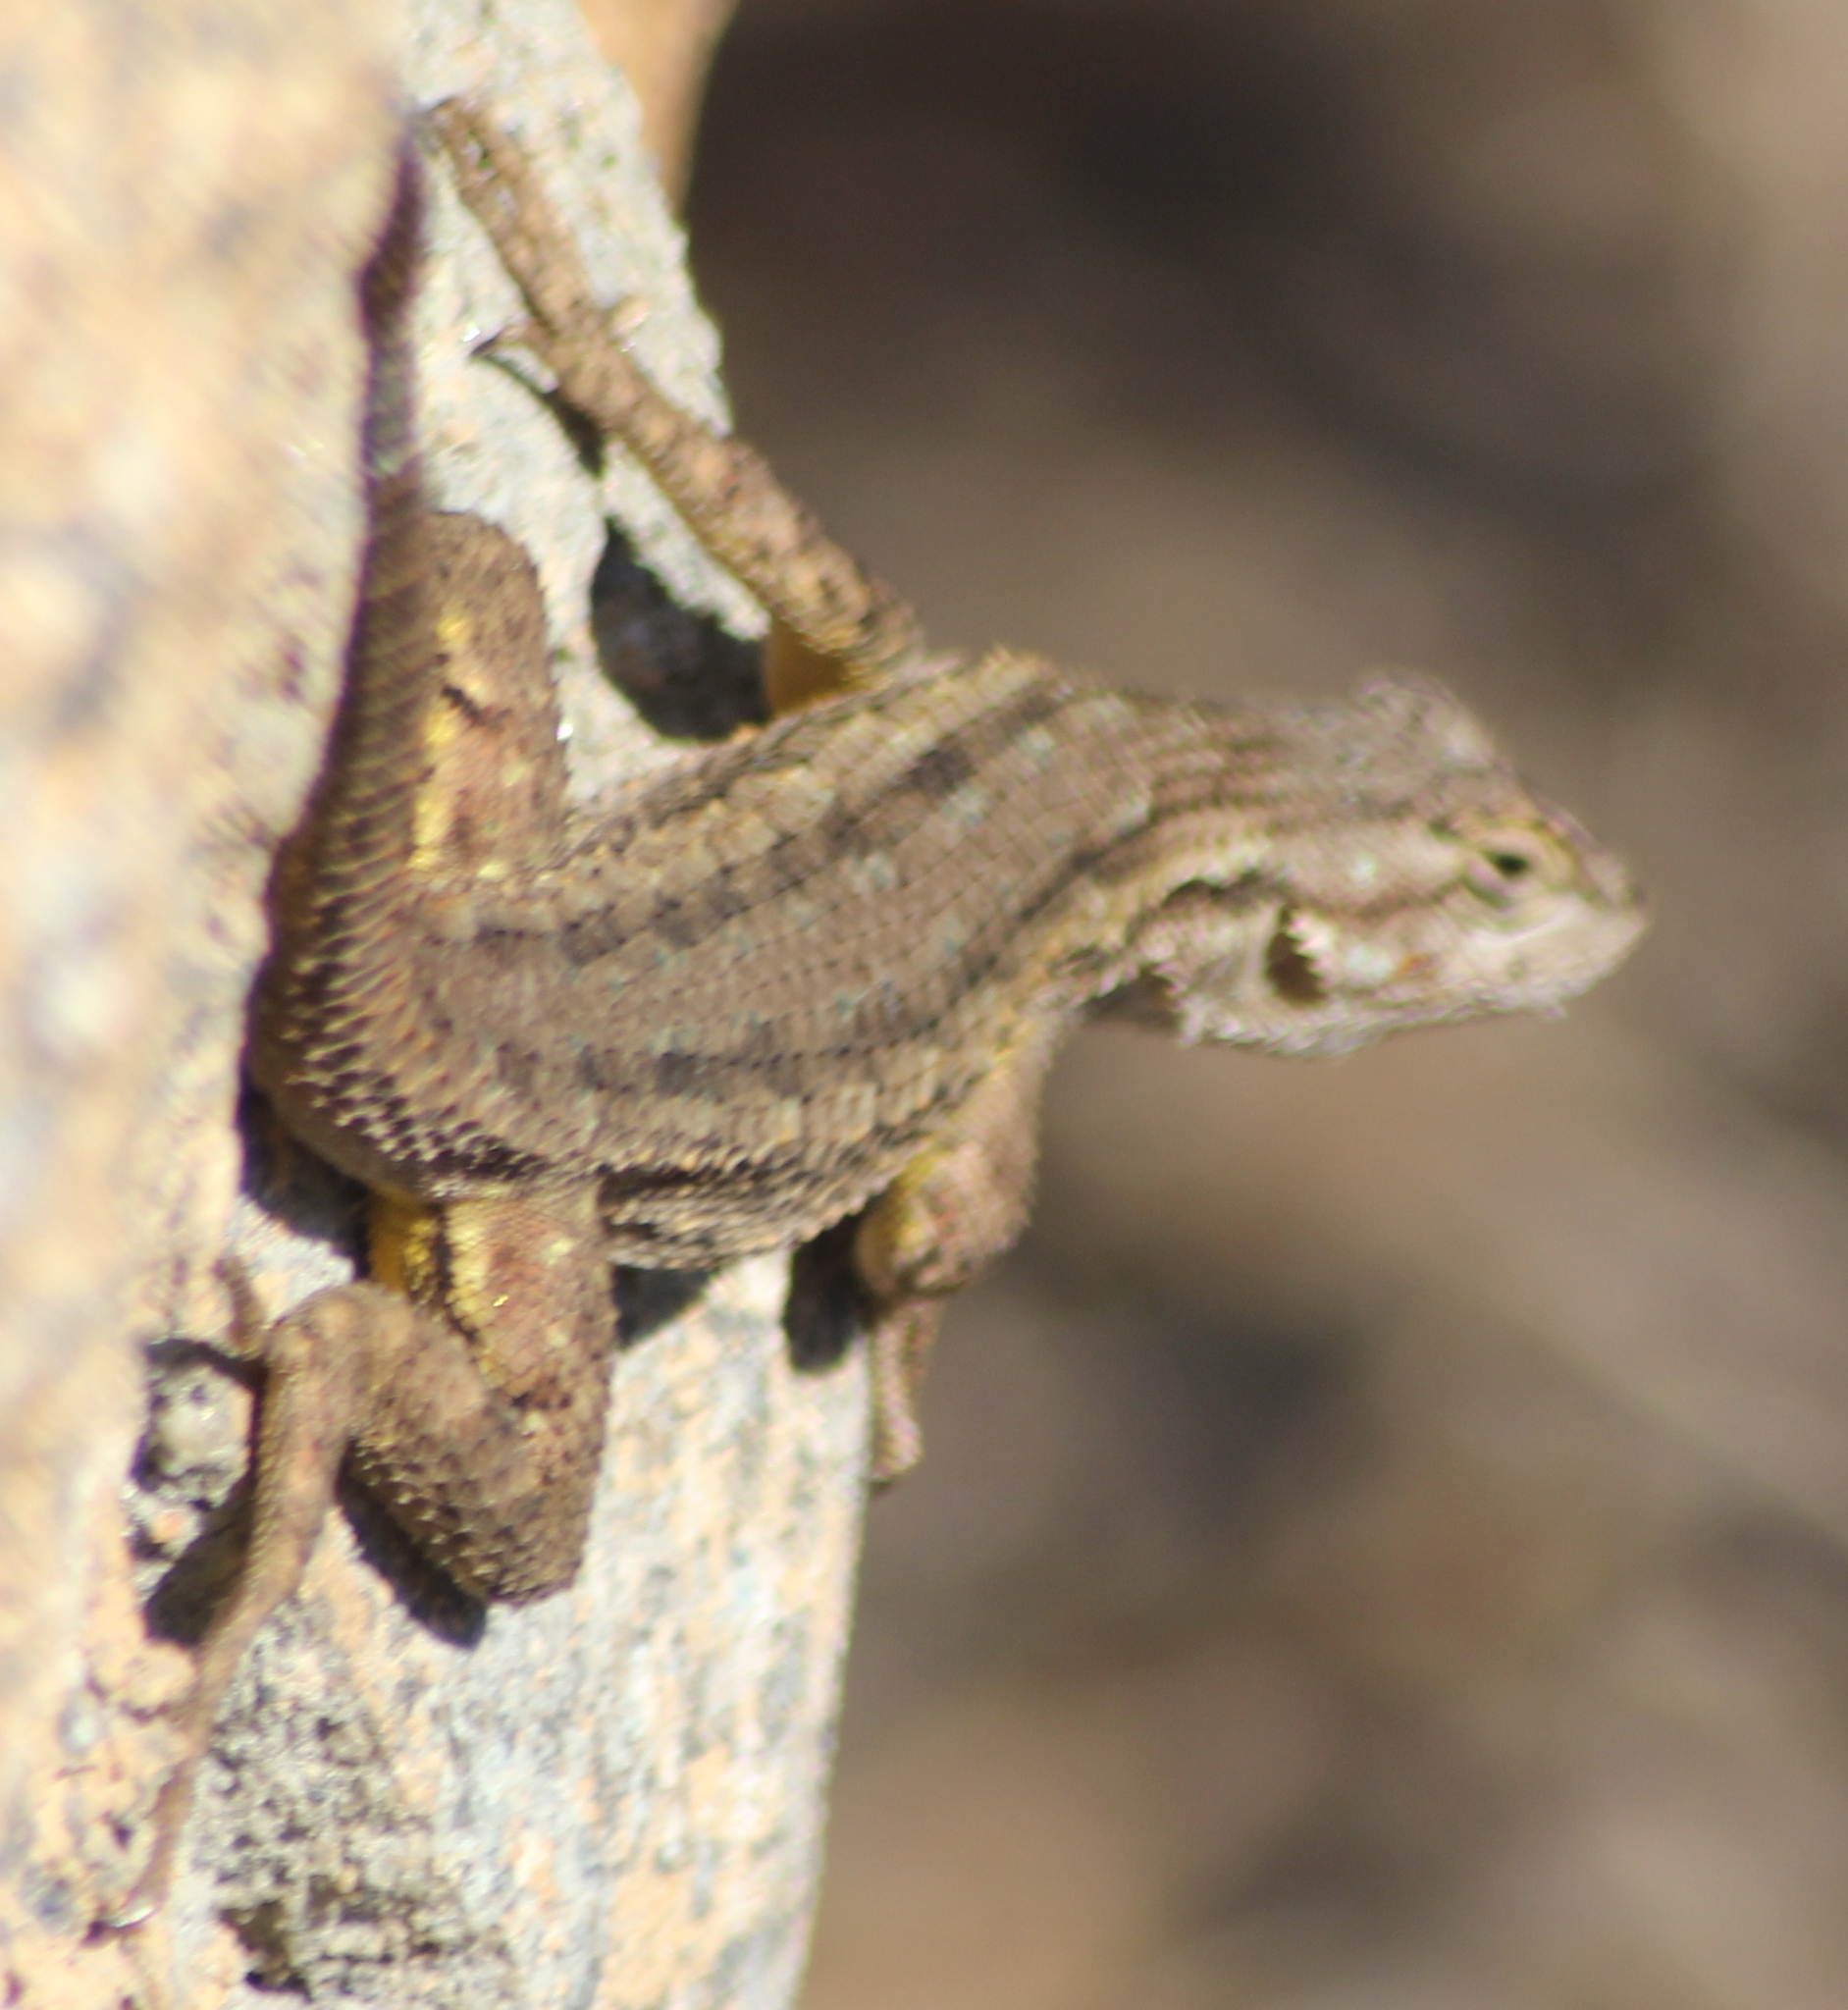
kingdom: Animalia
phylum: Chordata
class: Squamata
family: Phrynosomatidae
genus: Sceloporus
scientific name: Sceloporus occidentalis
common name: Western fence lizard
